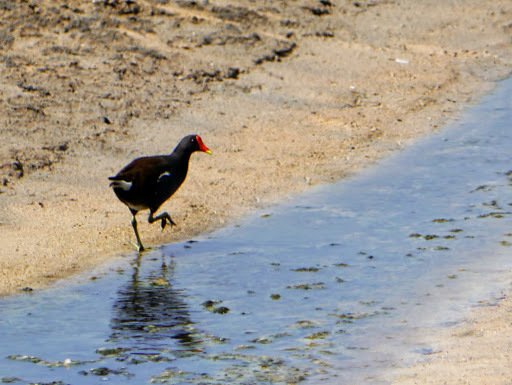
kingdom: Animalia
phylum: Chordata
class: Aves
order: Gruiformes
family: Rallidae
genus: Gallinula
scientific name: Gallinula chloropus
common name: Common moorhen
